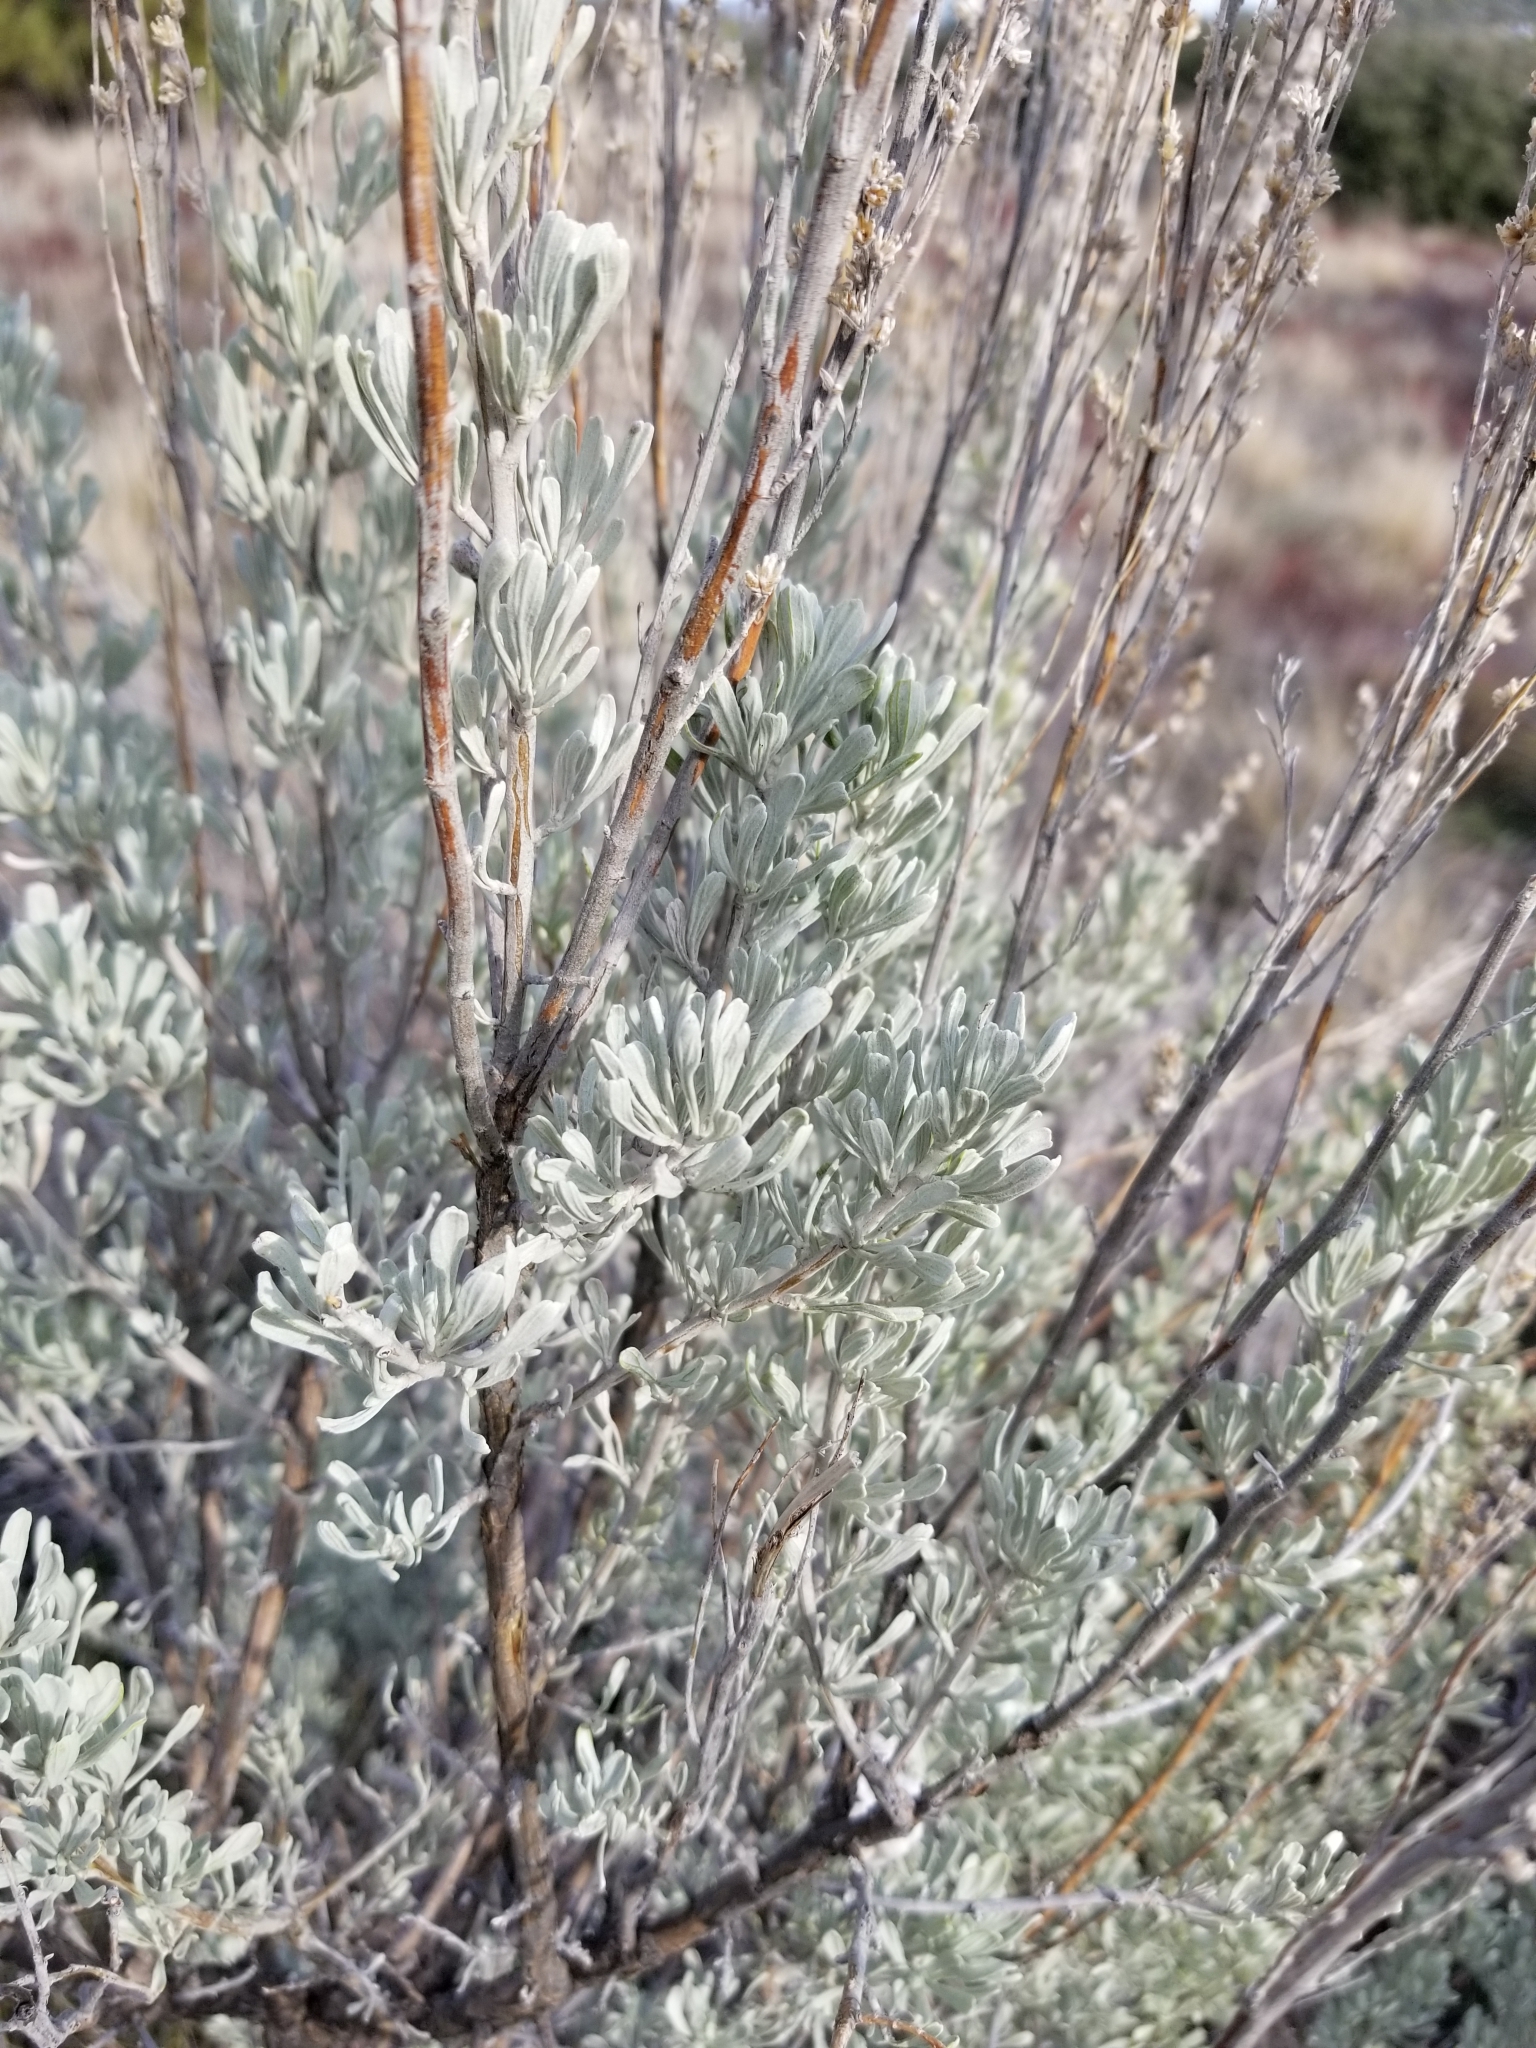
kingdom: Plantae
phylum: Tracheophyta
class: Magnoliopsida
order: Asterales
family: Asteraceae
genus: Artemisia
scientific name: Artemisia tridentata
